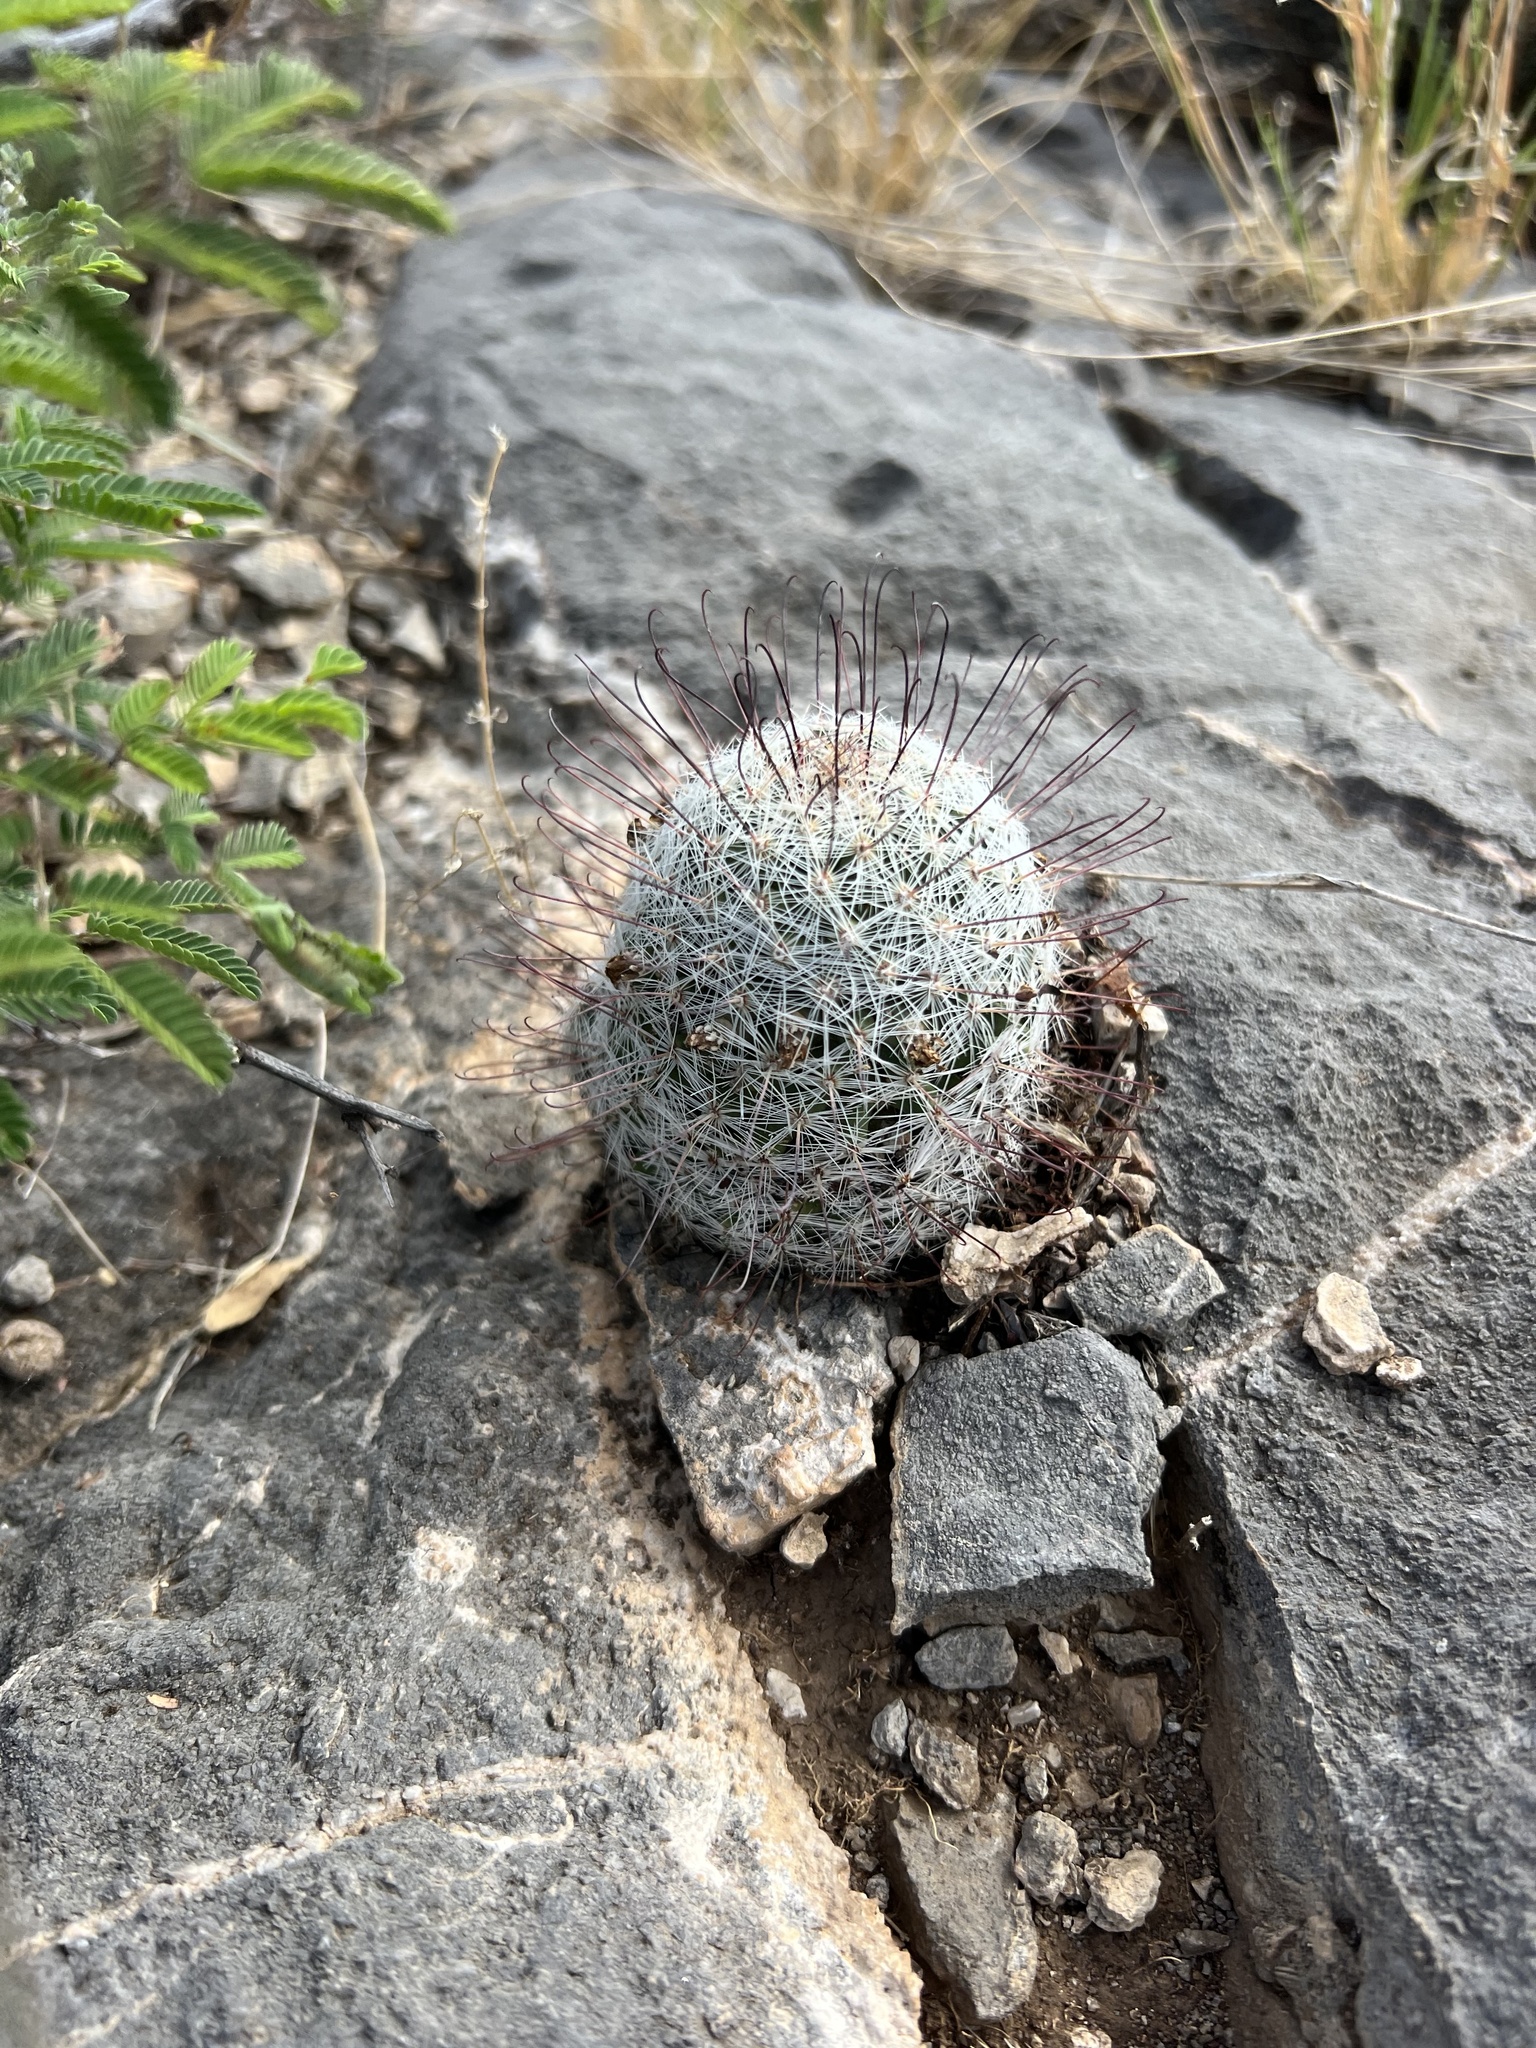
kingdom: Plantae
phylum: Tracheophyta
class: Magnoliopsida
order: Caryophyllales
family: Cactaceae
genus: Cochemiea
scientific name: Cochemiea barbata
